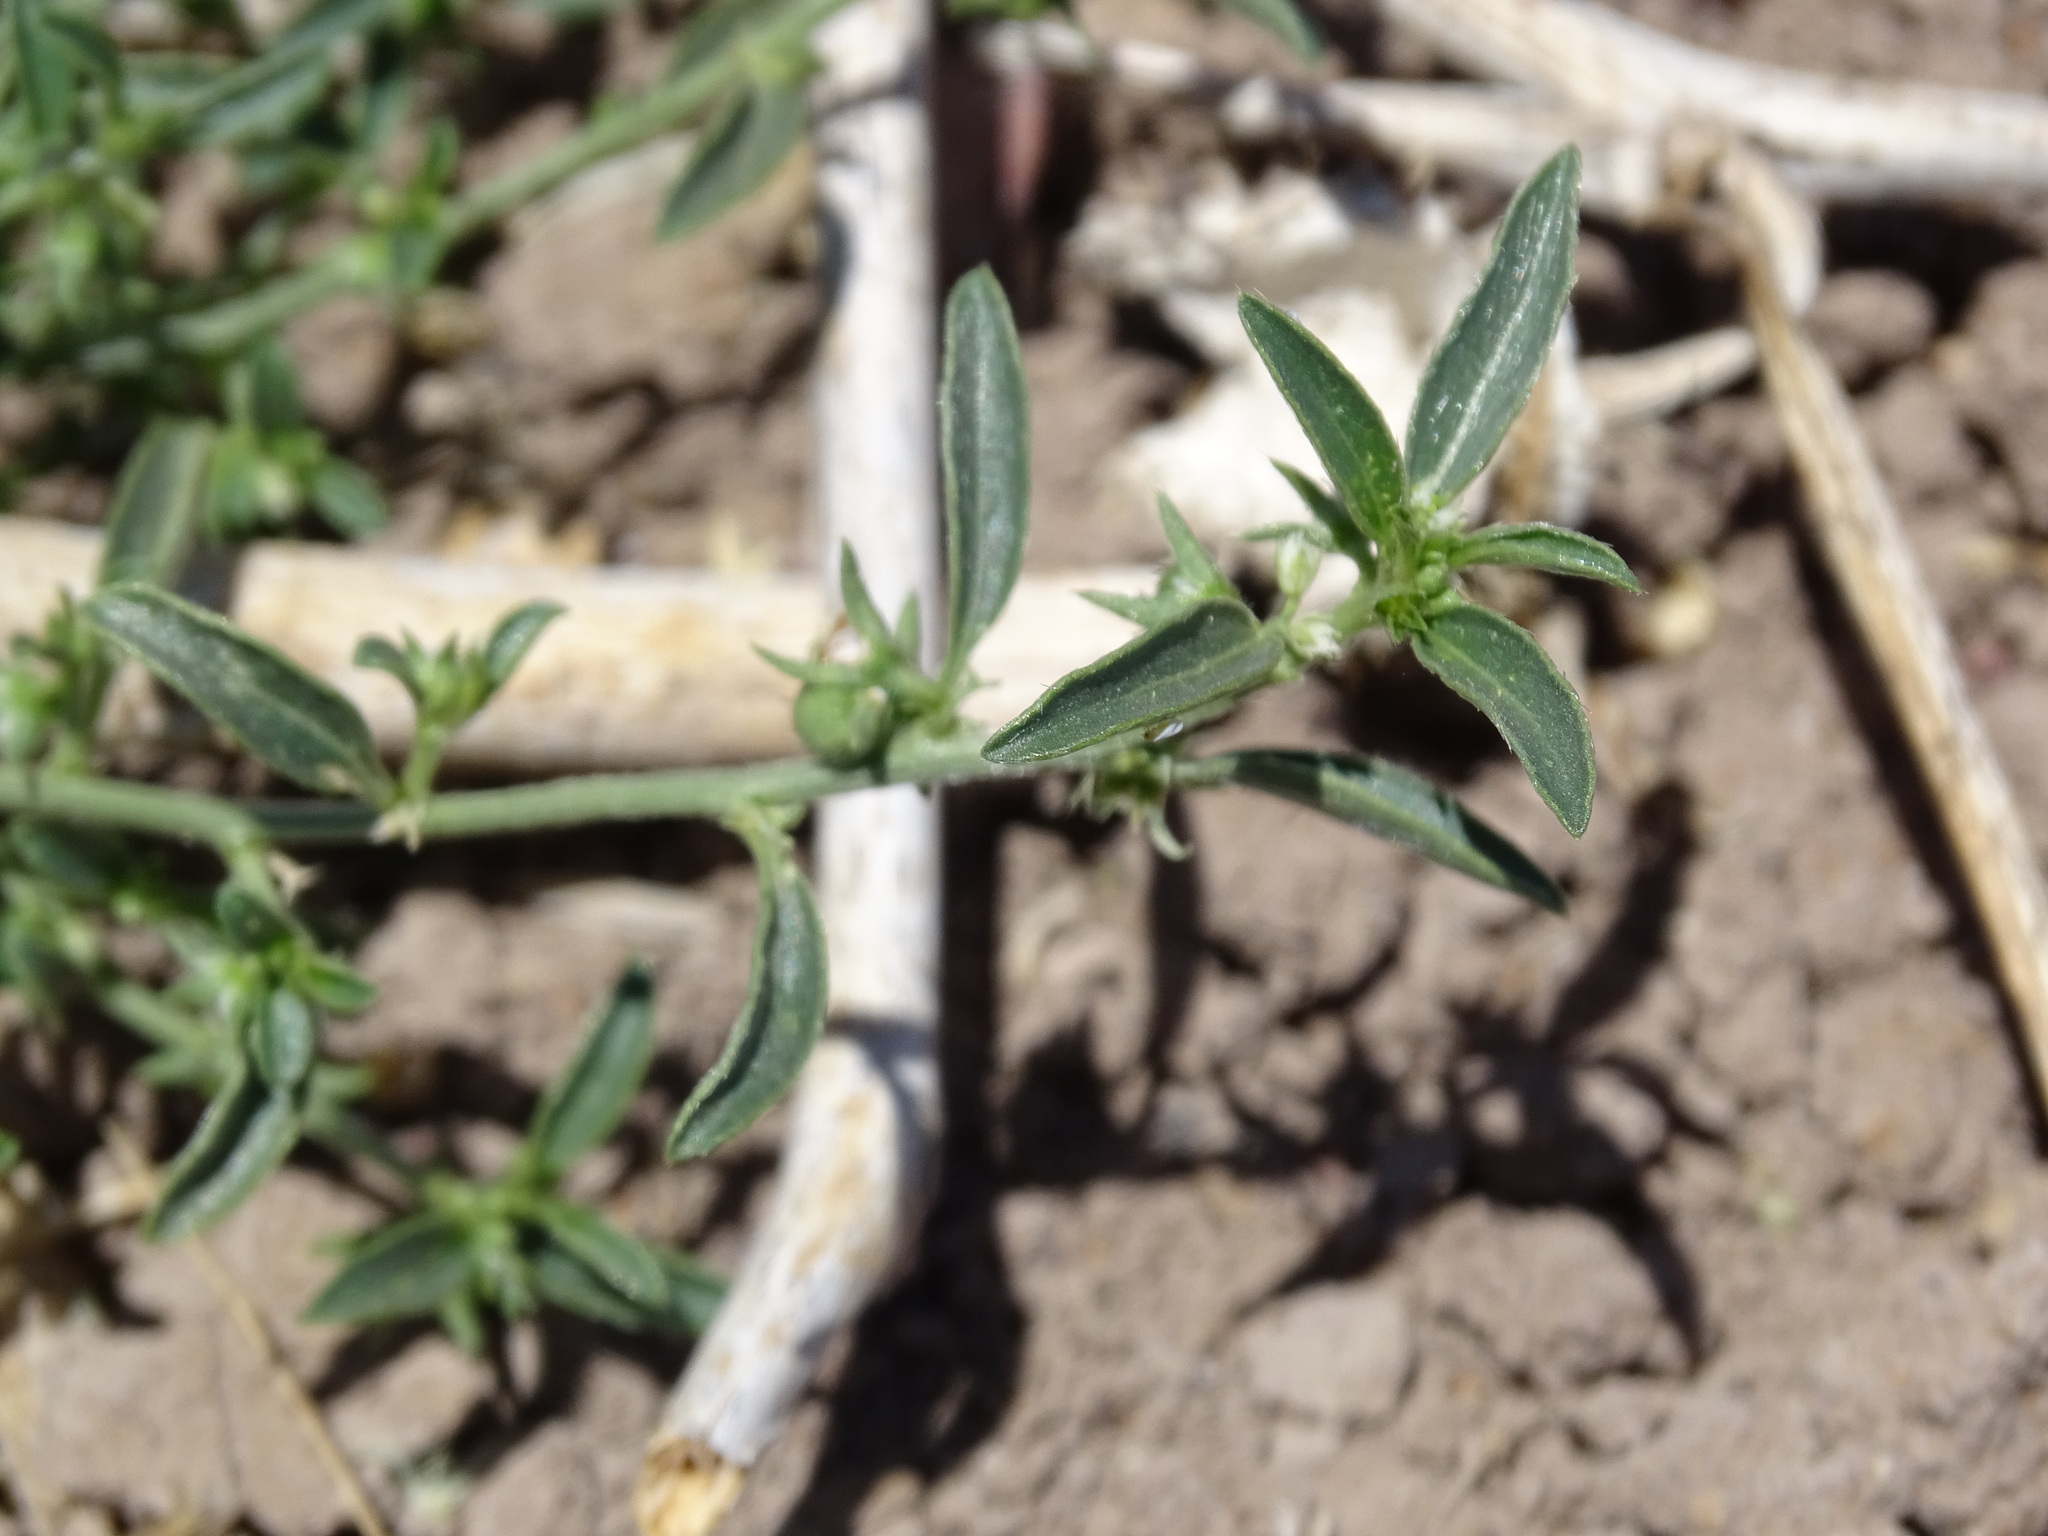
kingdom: Plantae
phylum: Tracheophyta
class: Magnoliopsida
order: Malpighiales
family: Euphorbiaceae
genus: Ditaxis
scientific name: Ditaxis humilis
